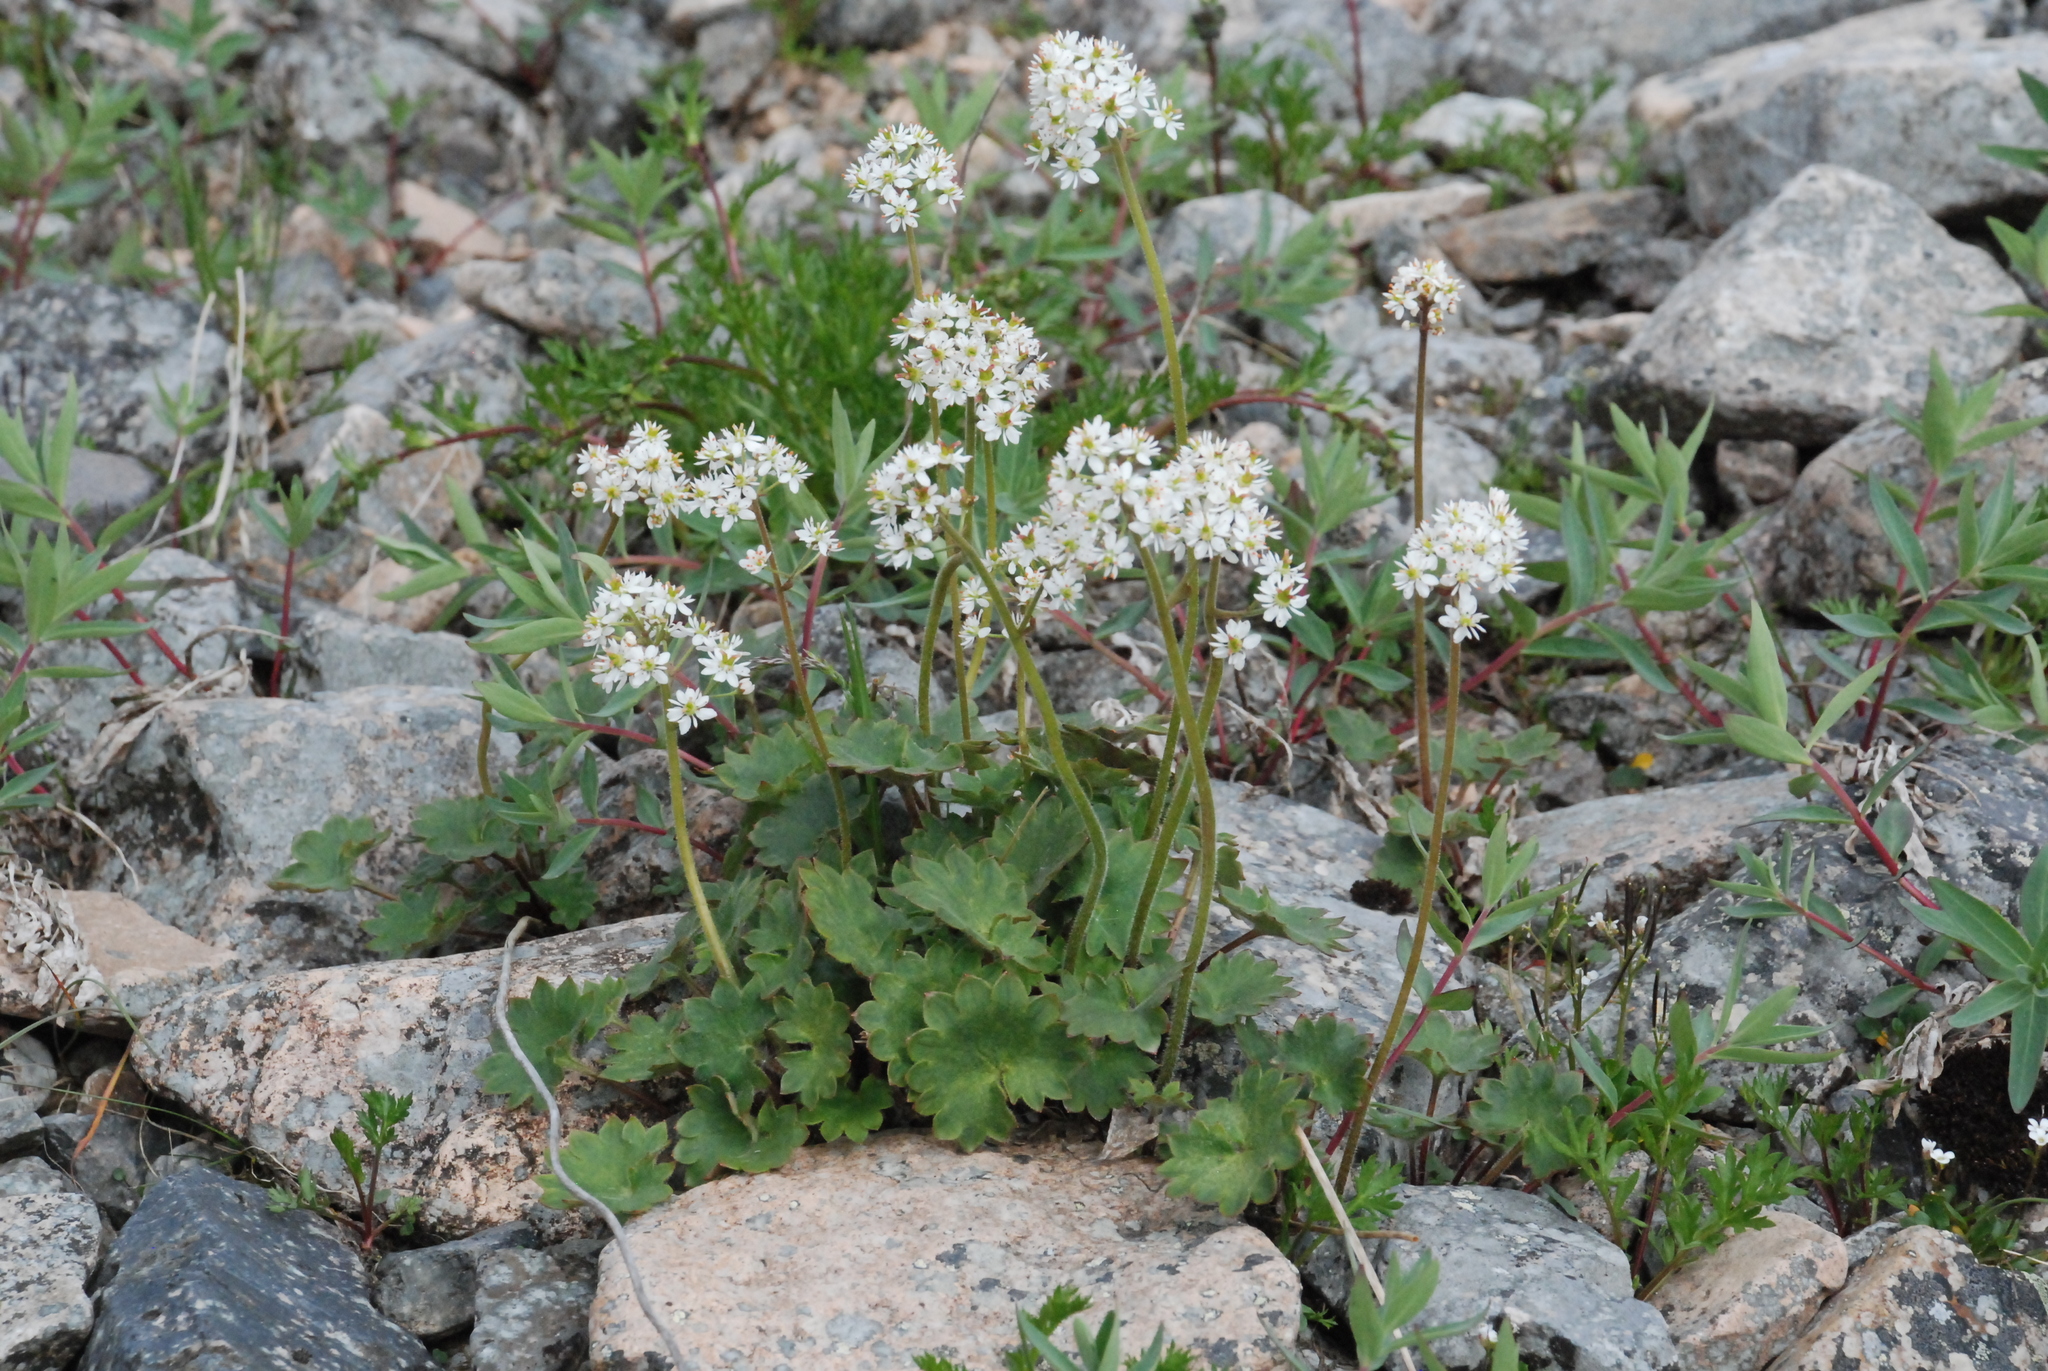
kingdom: Plantae
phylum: Tracheophyta
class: Magnoliopsida
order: Saxifragales
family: Saxifragaceae
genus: Micranthes
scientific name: Micranthes nelsoniana
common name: Nelson's saxifrage
